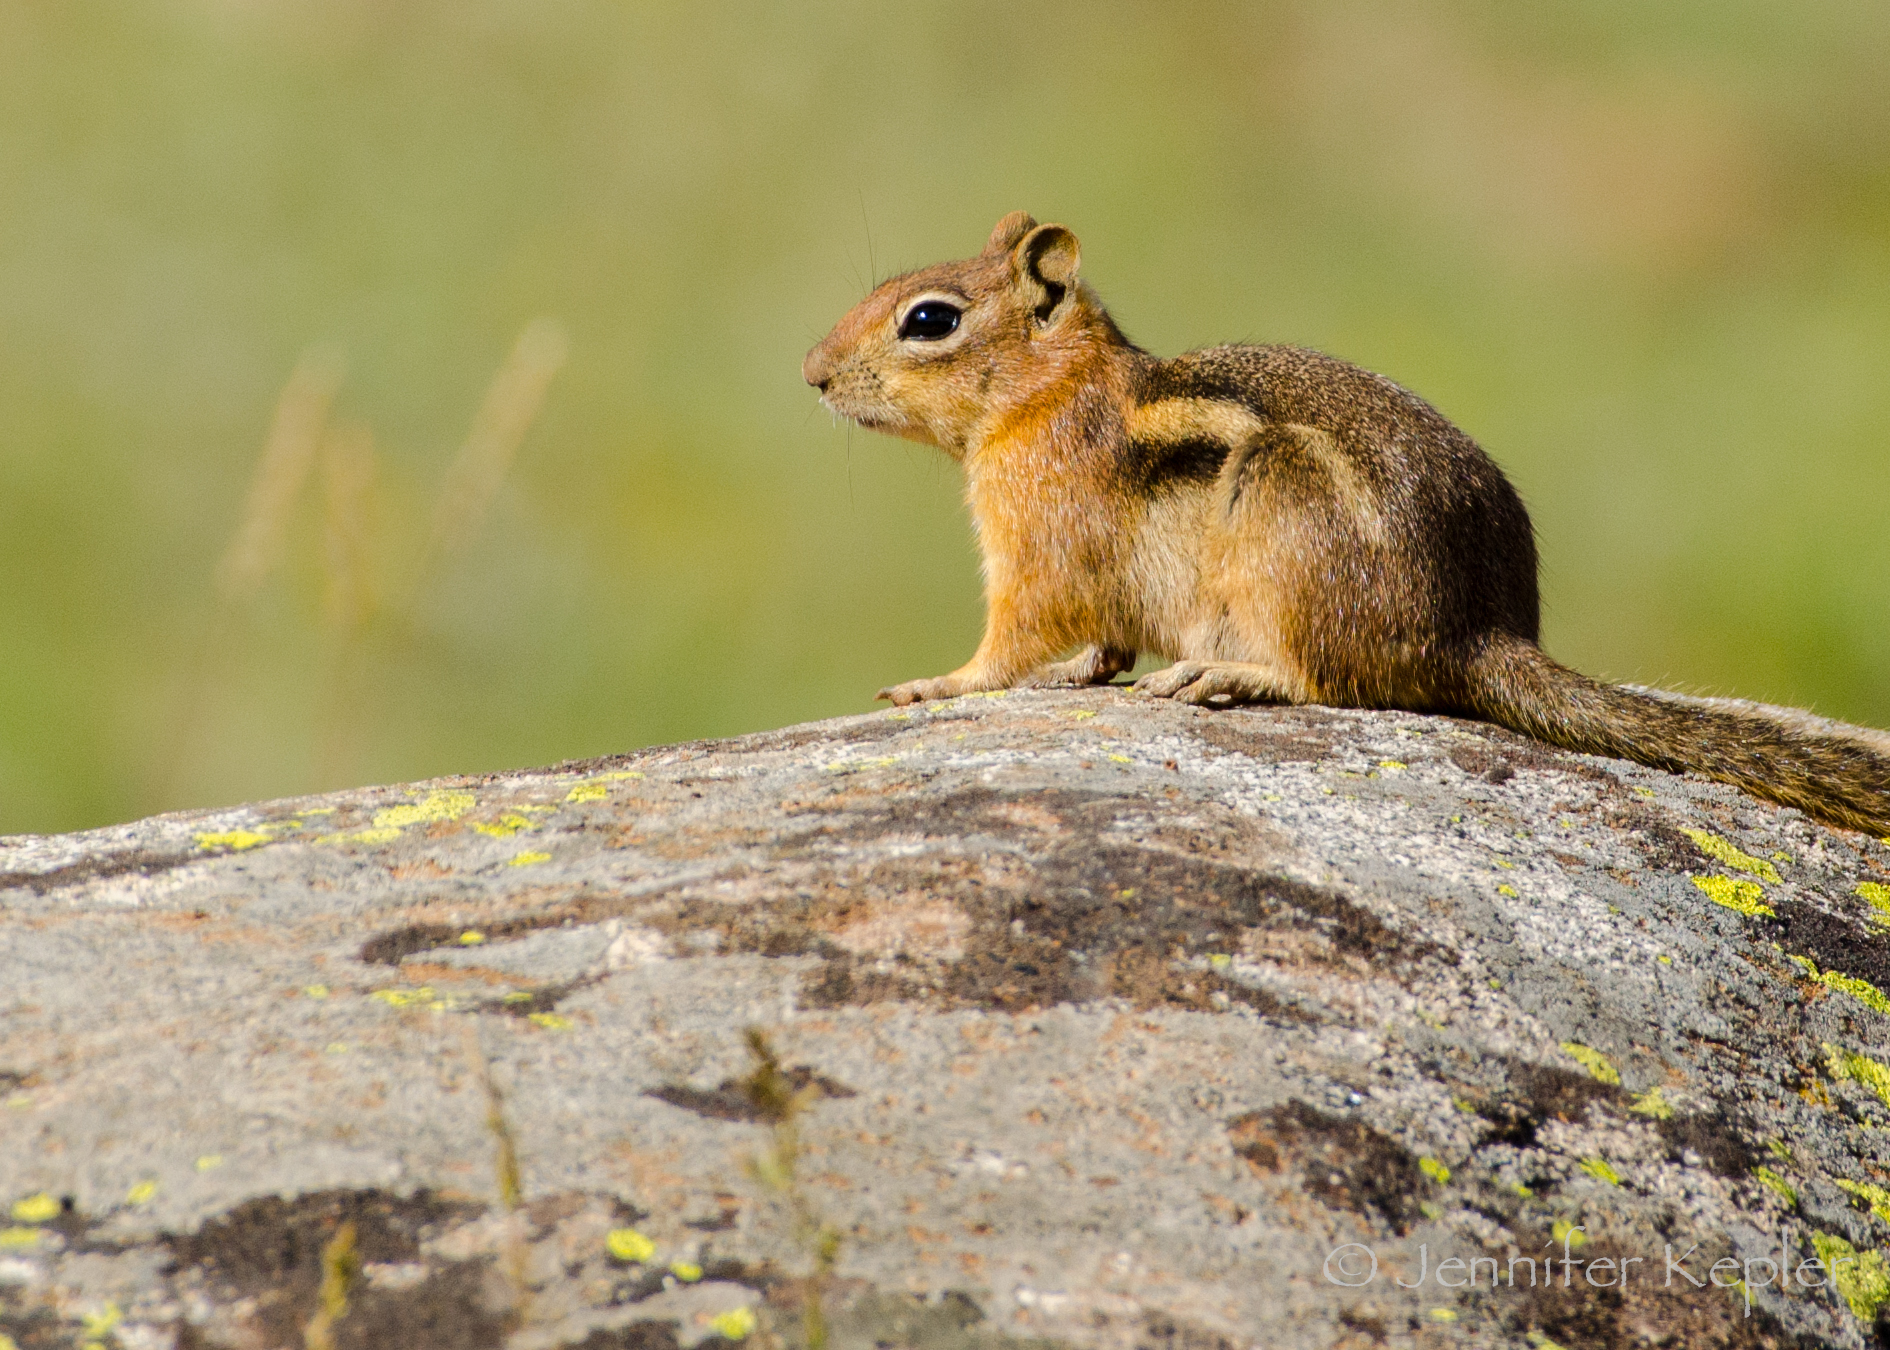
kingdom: Animalia
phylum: Chordata
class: Mammalia
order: Rodentia
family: Sciuridae
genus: Callospermophilus
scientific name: Callospermophilus lateralis
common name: Golden-mantled ground squirrel
